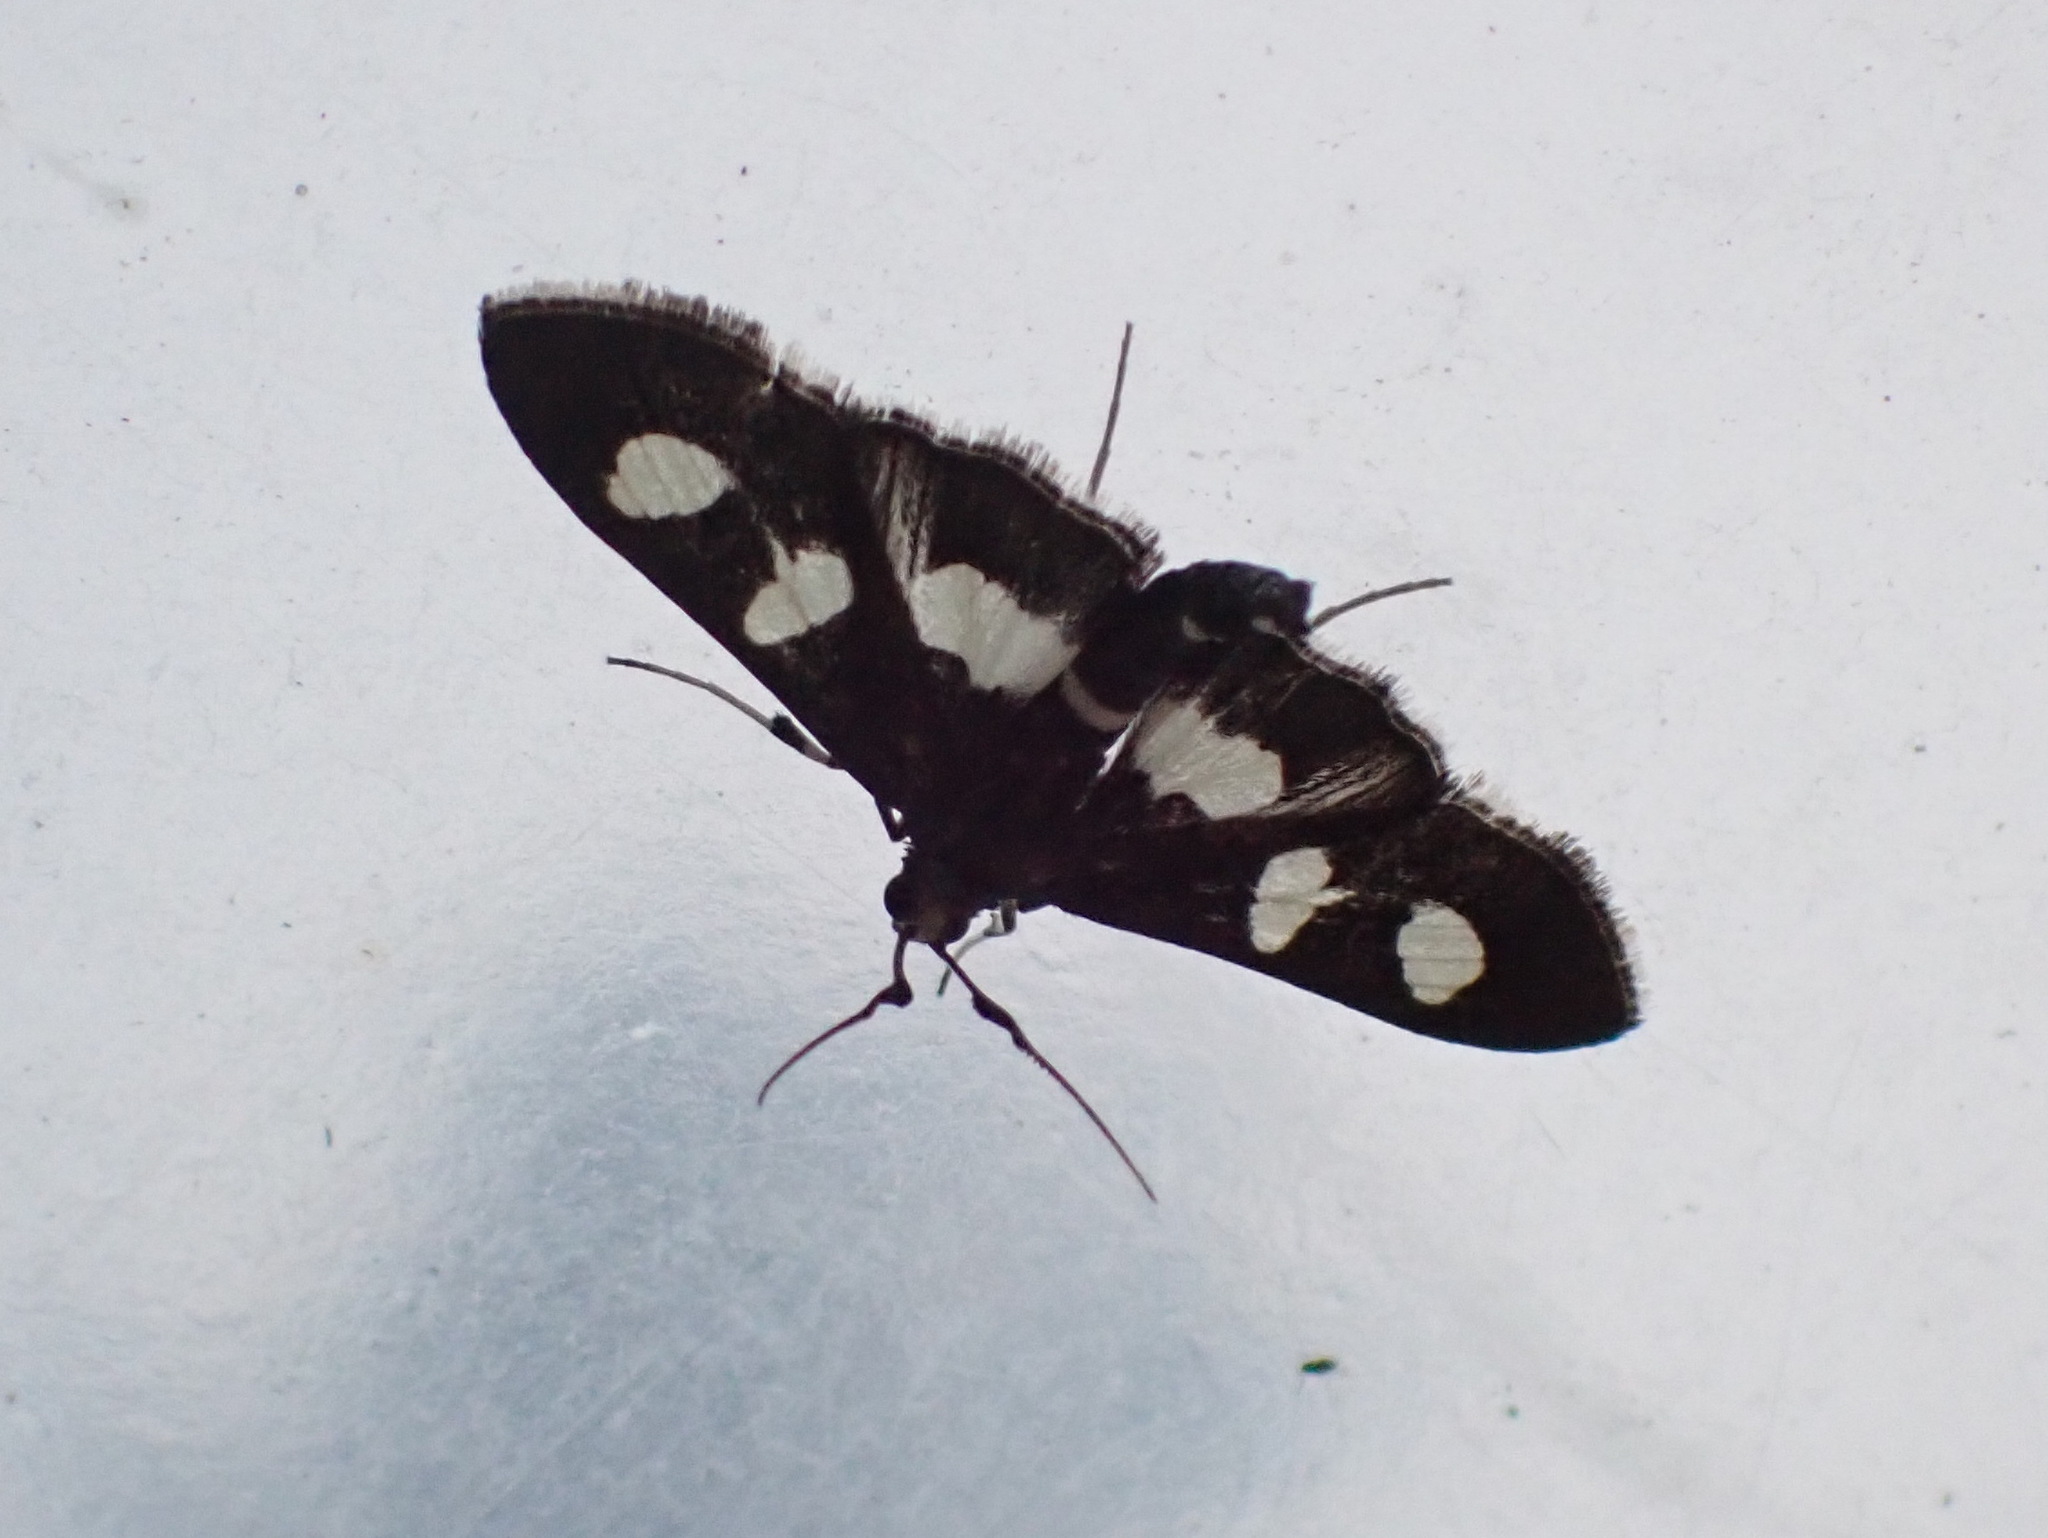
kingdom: Animalia
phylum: Arthropoda
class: Insecta
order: Lepidoptera
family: Crambidae
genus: Desmia
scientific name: Desmia
